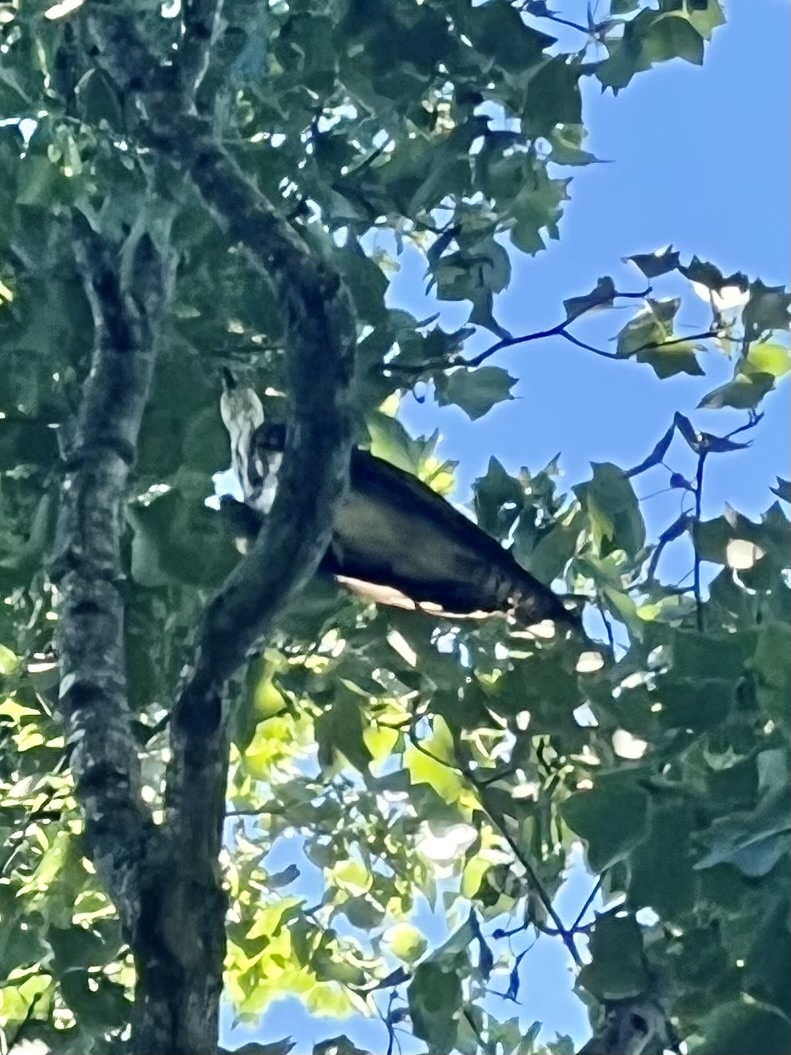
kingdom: Animalia
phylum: Chordata
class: Aves
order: Accipitriformes
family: Pandionidae
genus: Pandion
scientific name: Pandion haliaetus
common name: Osprey
